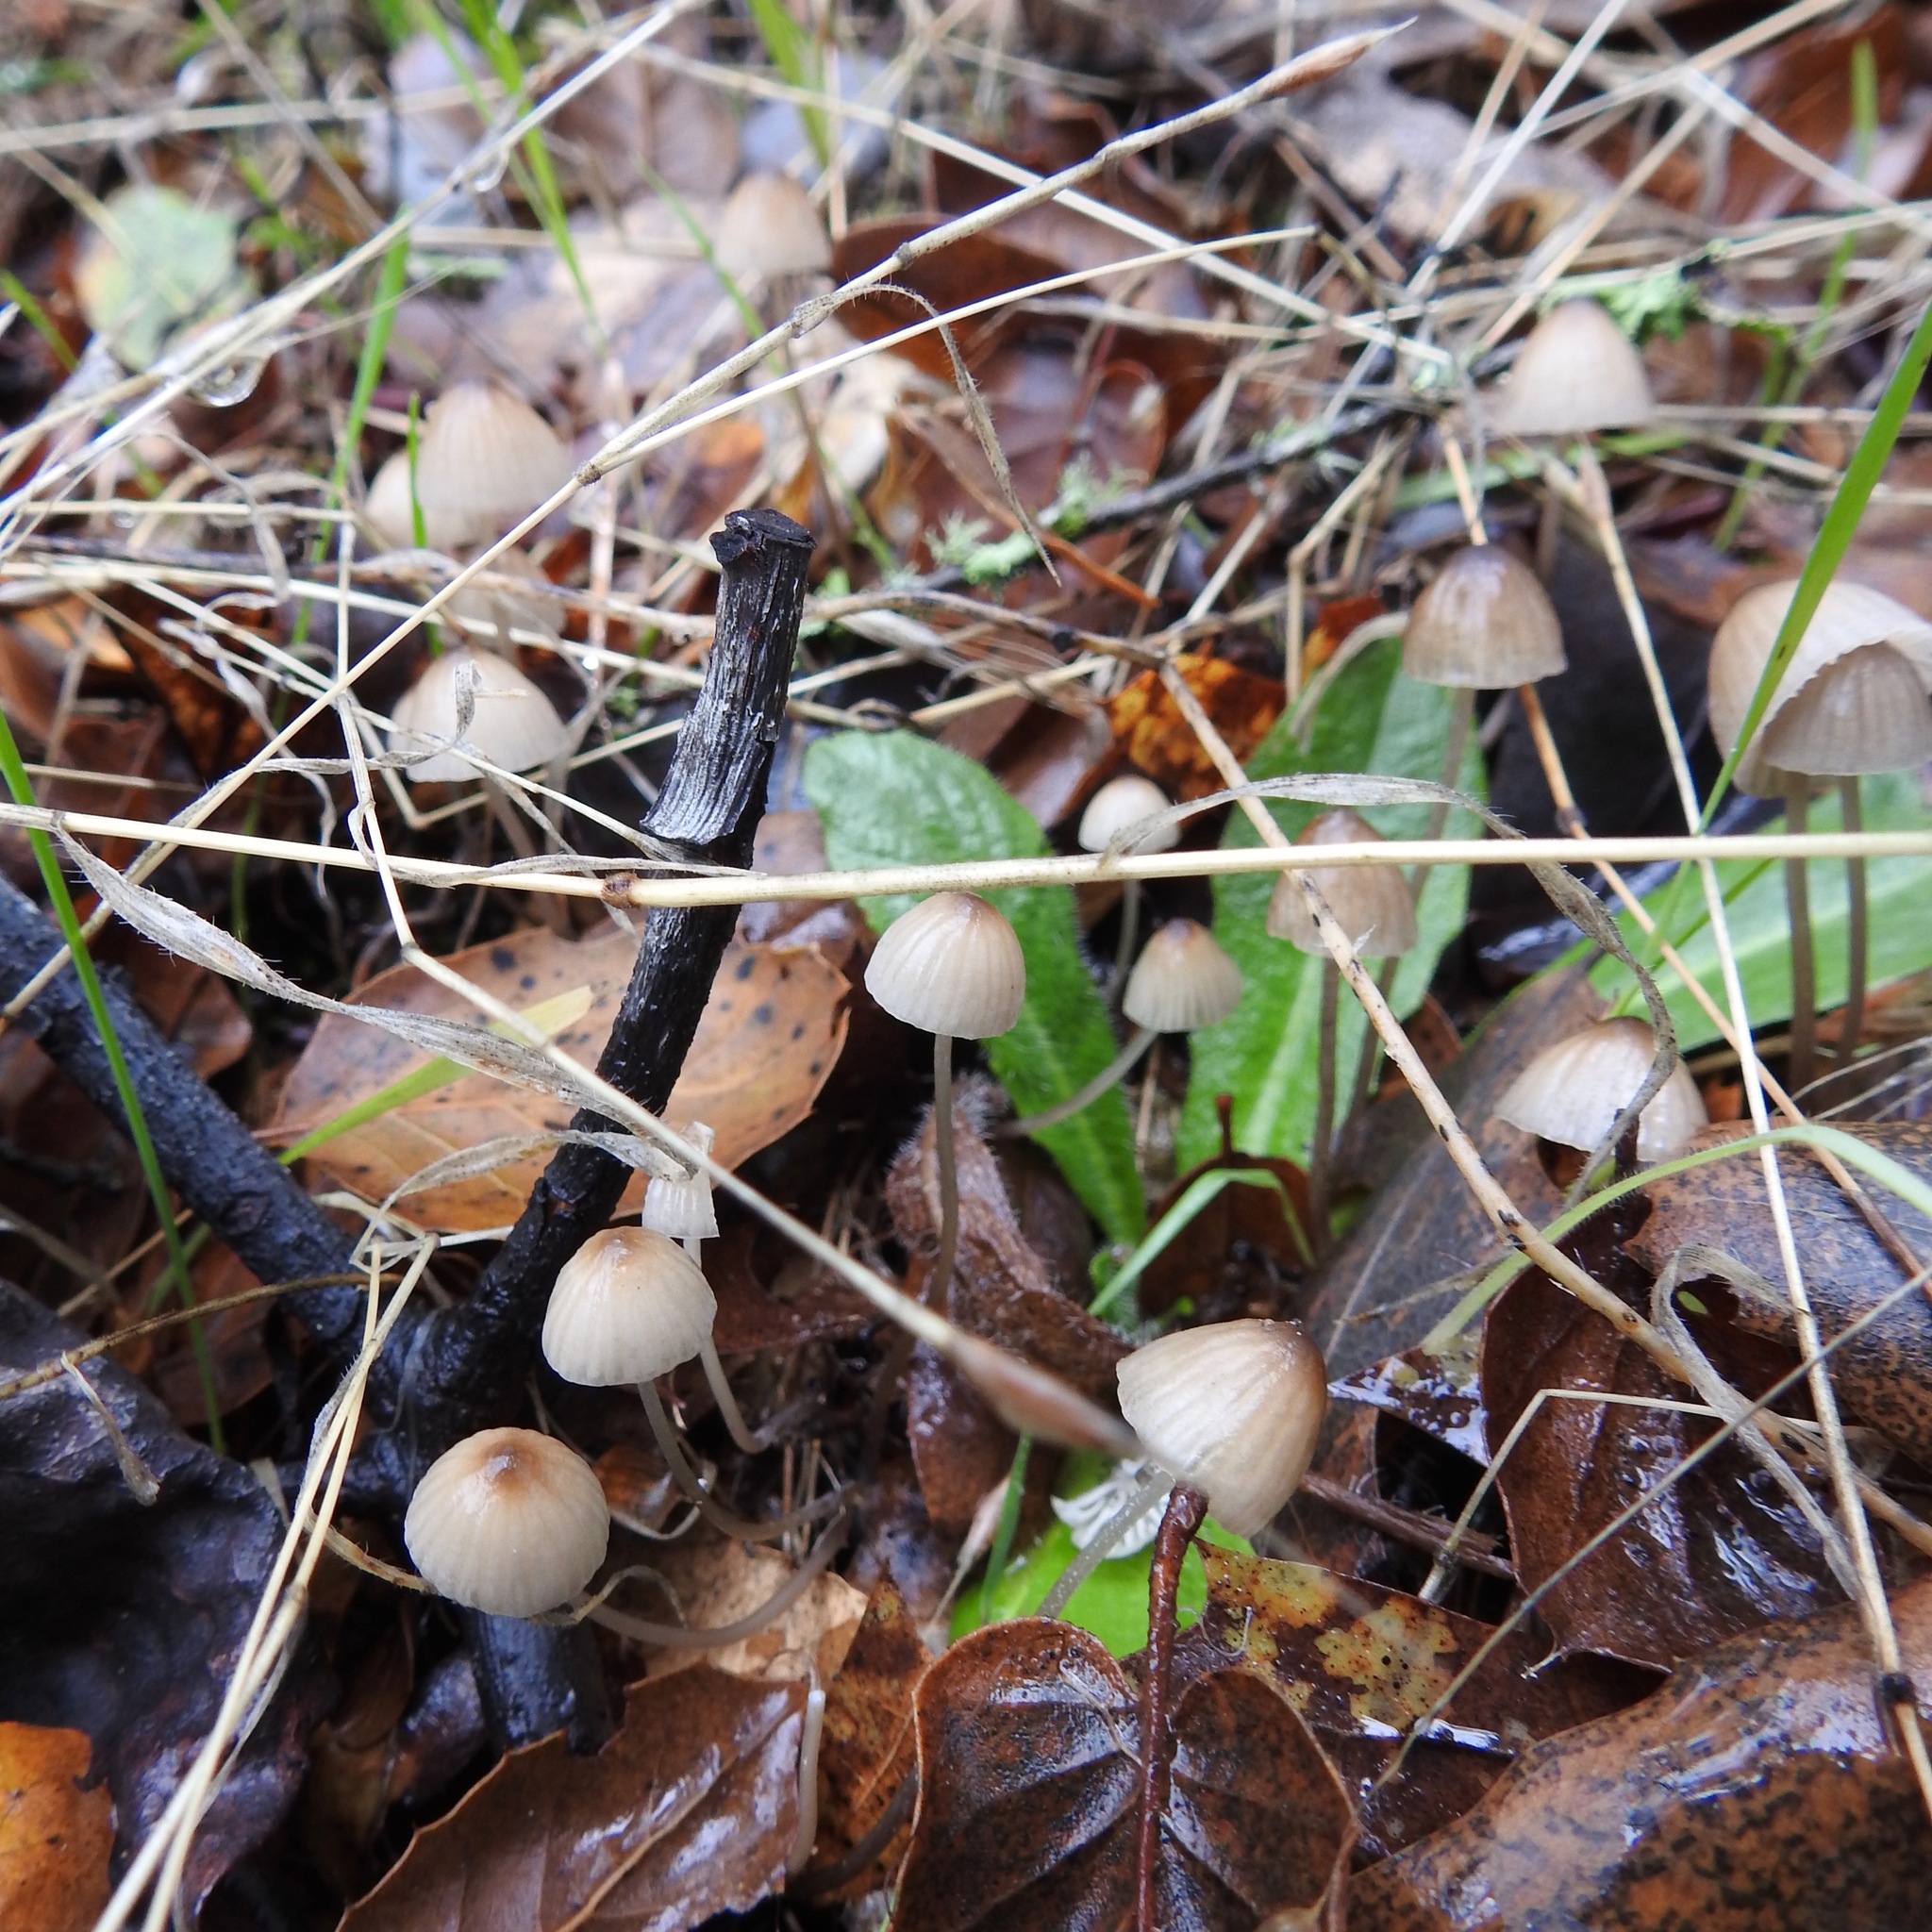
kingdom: Fungi
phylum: Basidiomycota
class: Agaricomycetes
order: Agaricales
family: Mycenaceae
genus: Mycena
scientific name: Mycena galopus
